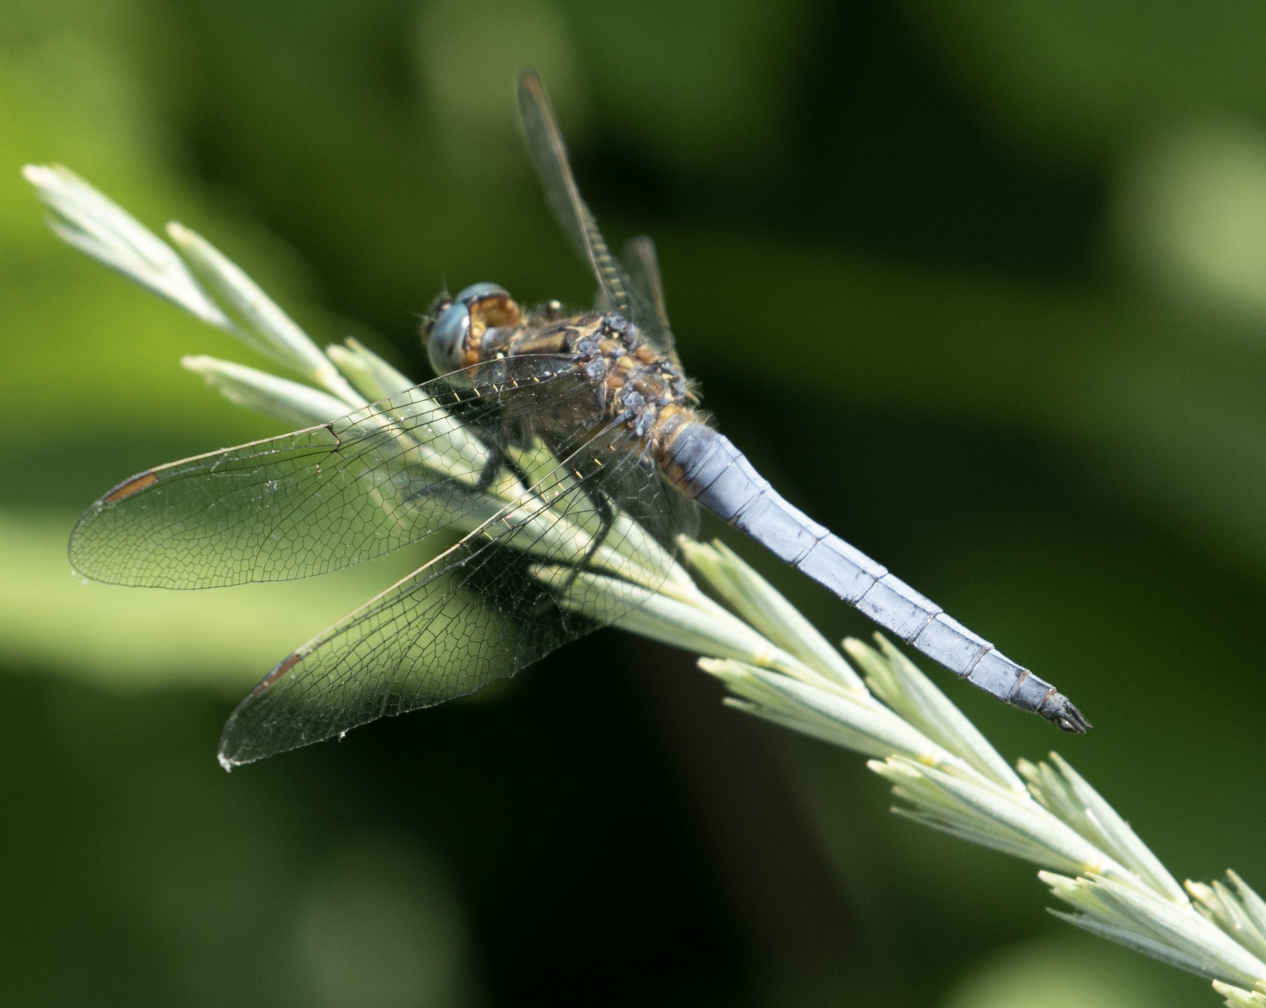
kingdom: Animalia
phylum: Arthropoda
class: Insecta
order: Odonata
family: Libellulidae
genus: Orthetrum
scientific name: Orthetrum coerulescens
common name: Keeled skimmer
